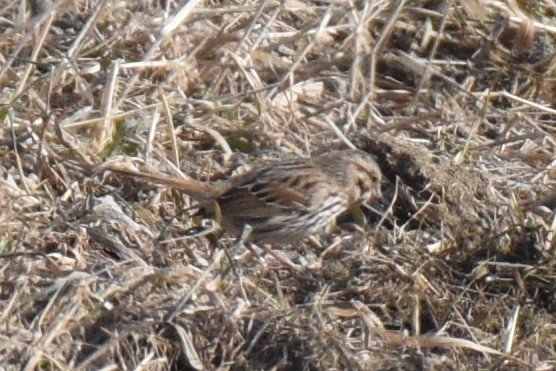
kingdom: Animalia
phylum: Chordata
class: Aves
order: Passeriformes
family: Passerellidae
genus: Melospiza
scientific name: Melospiza melodia
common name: Song sparrow
